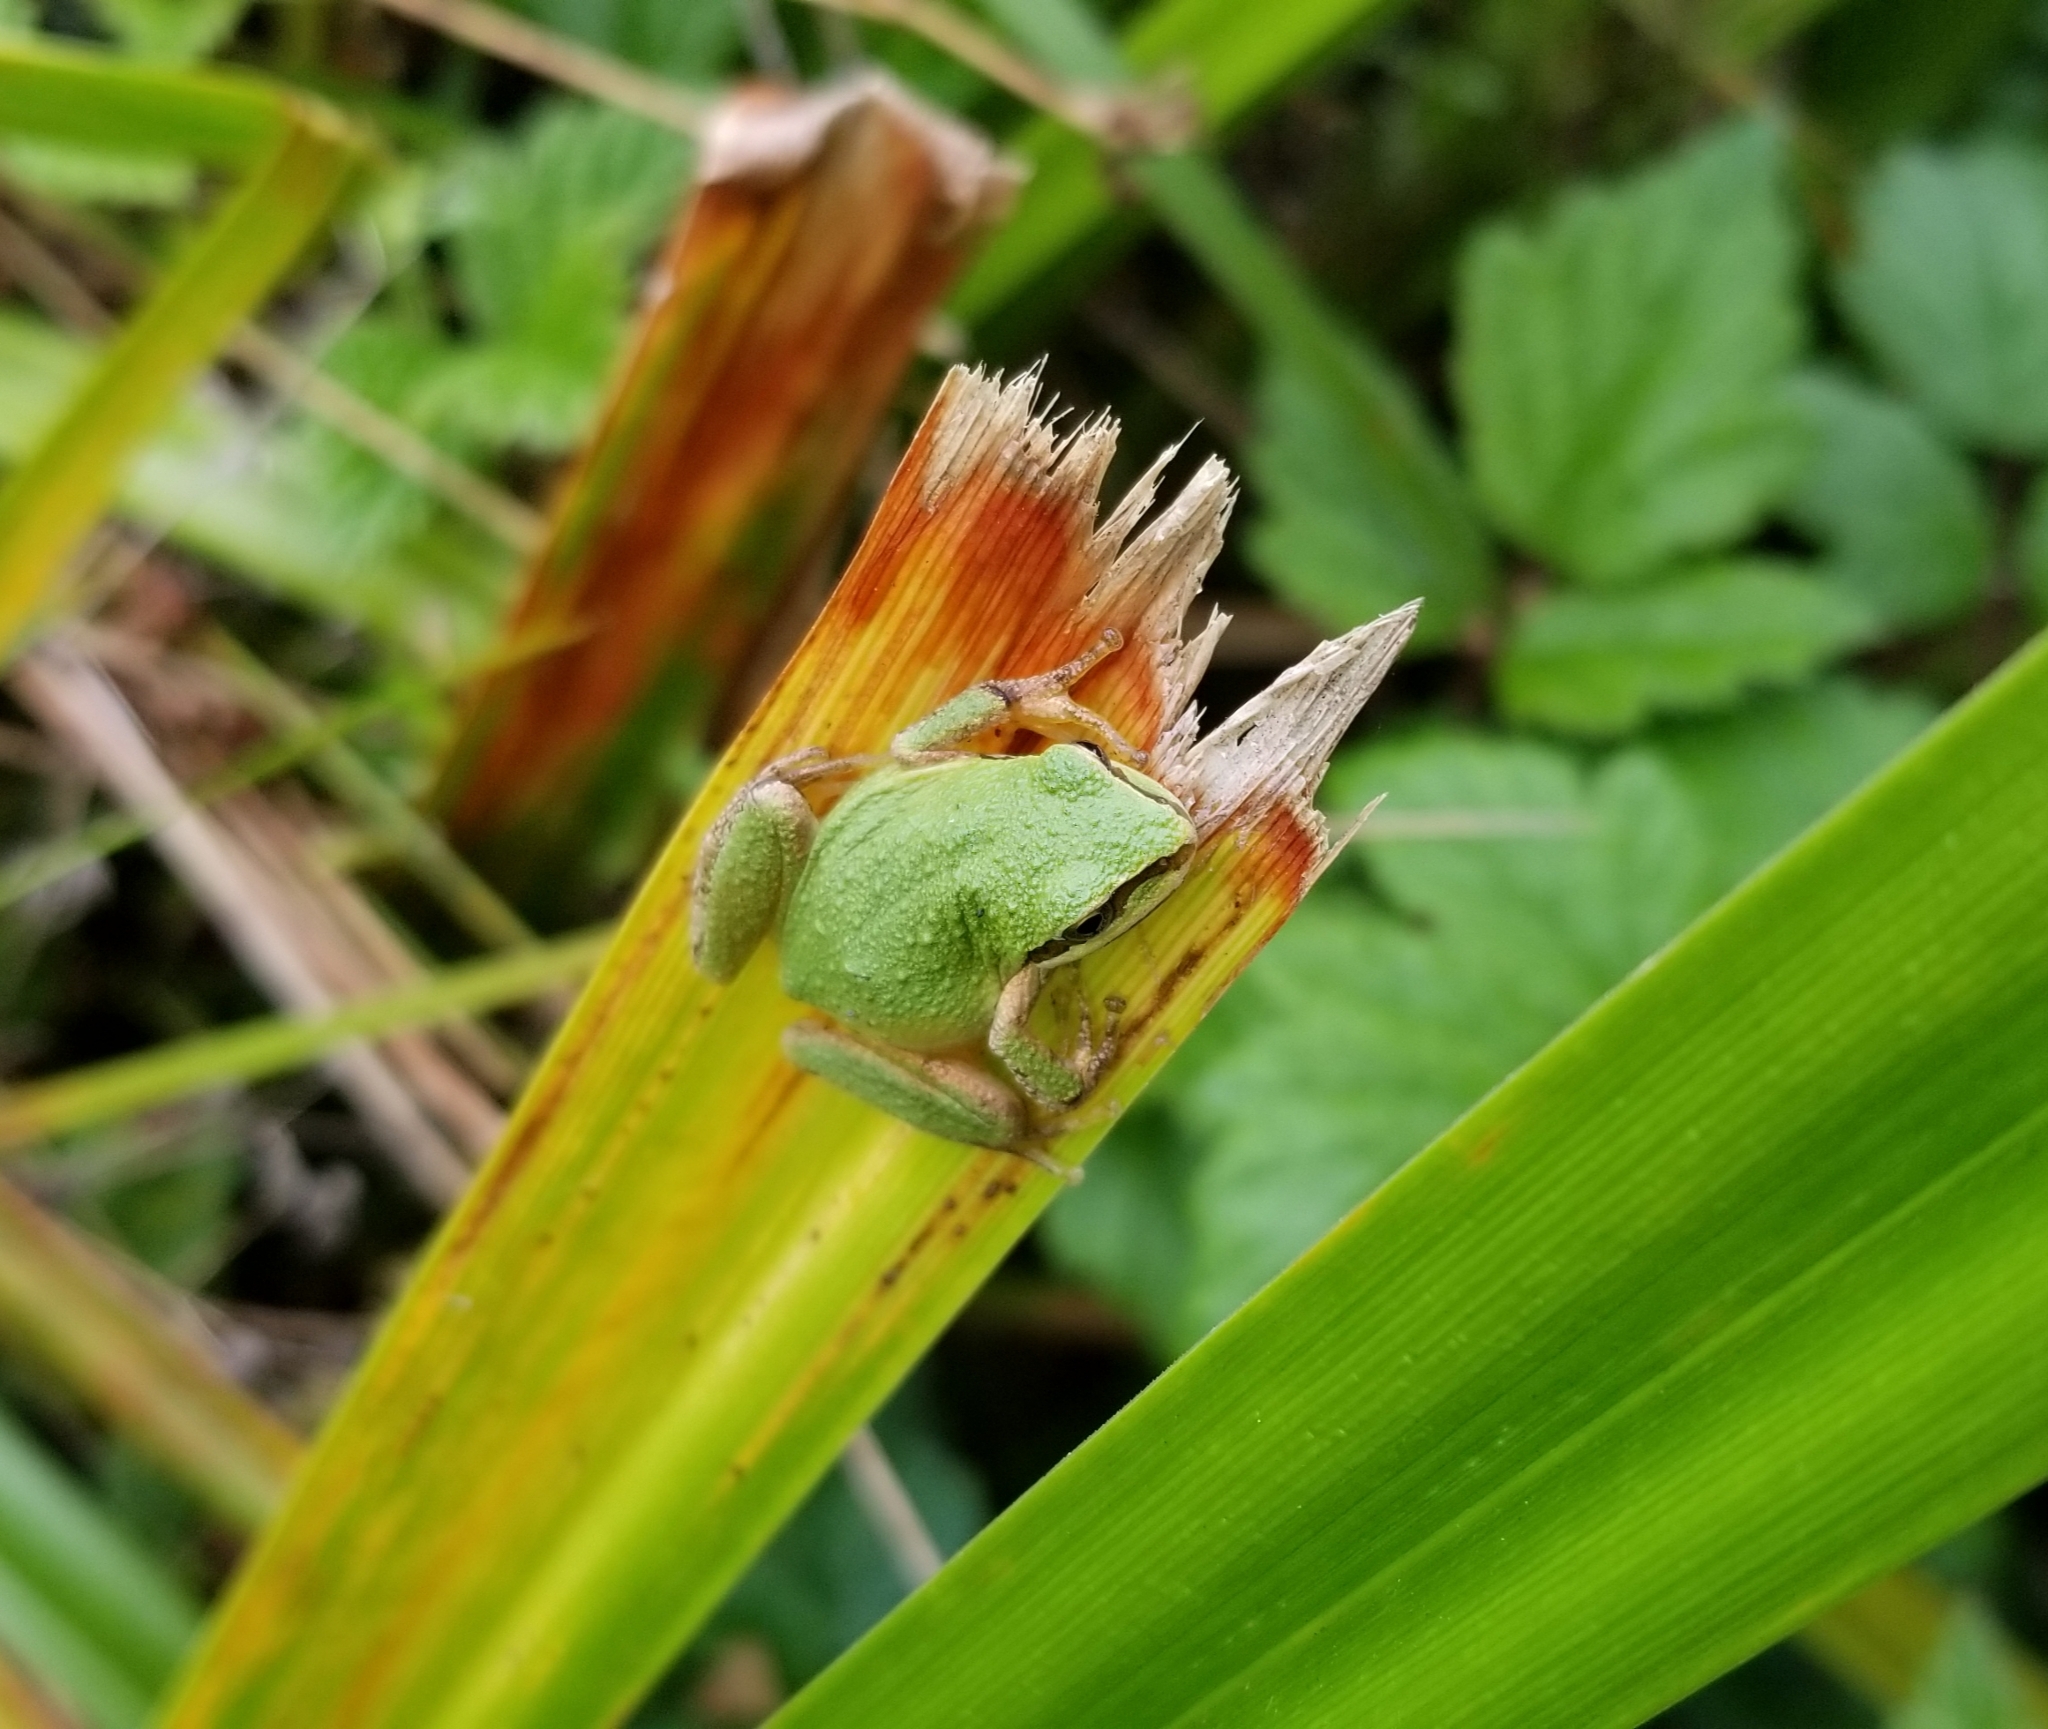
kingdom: Animalia
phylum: Chordata
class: Amphibia
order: Anura
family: Hylidae
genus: Pseudacris
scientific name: Pseudacris regilla
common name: Pacific chorus frog
